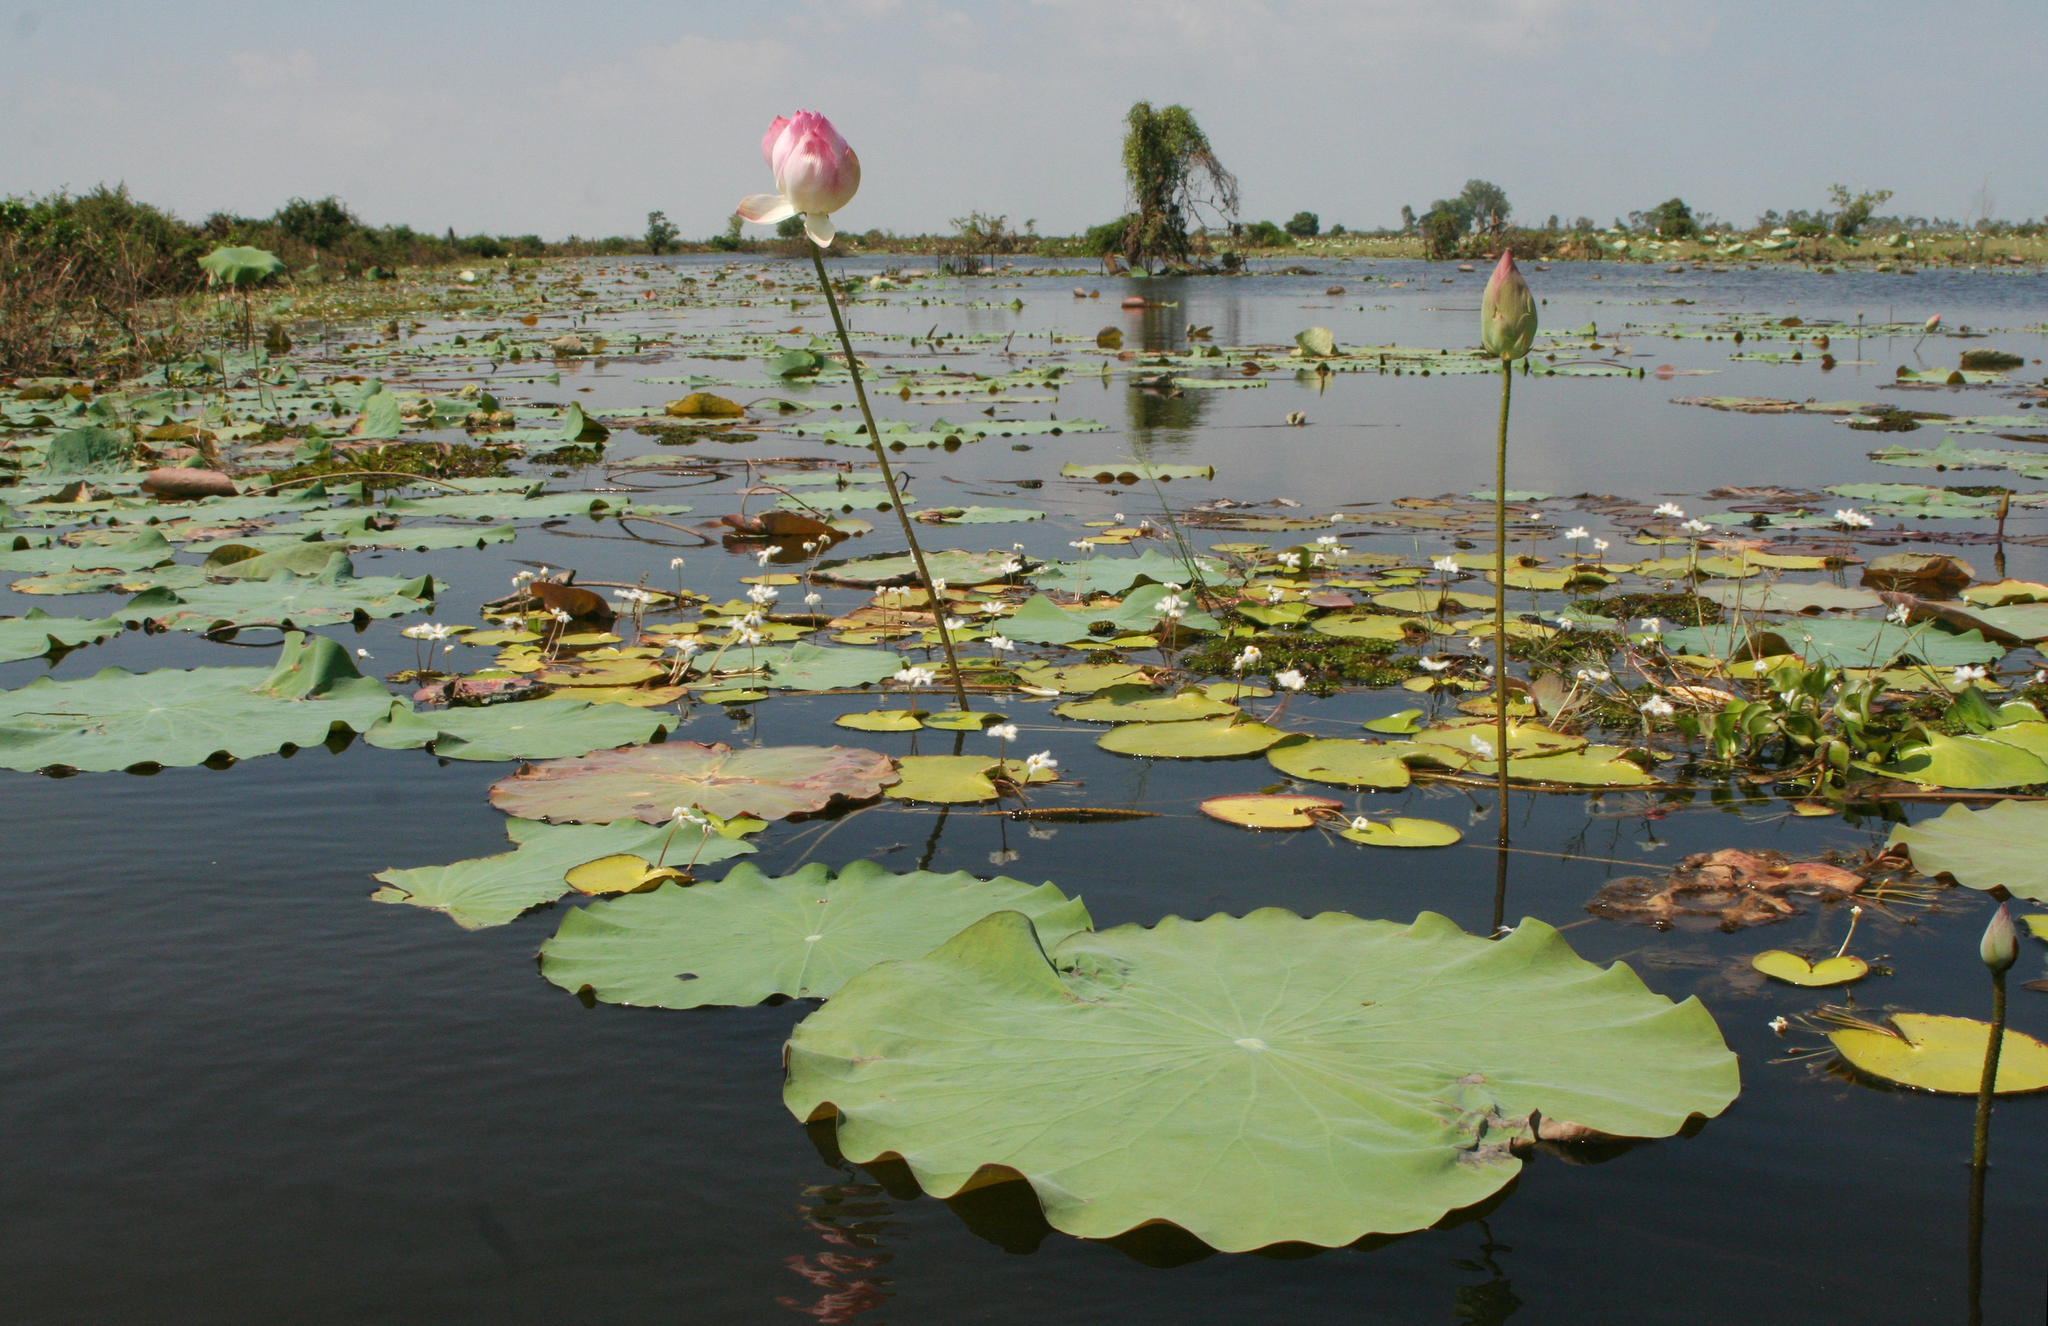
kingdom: Plantae
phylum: Tracheophyta
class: Magnoliopsida
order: Proteales
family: Nelumbonaceae
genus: Nelumbo
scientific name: Nelumbo nucifera
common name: Sacred lotus
